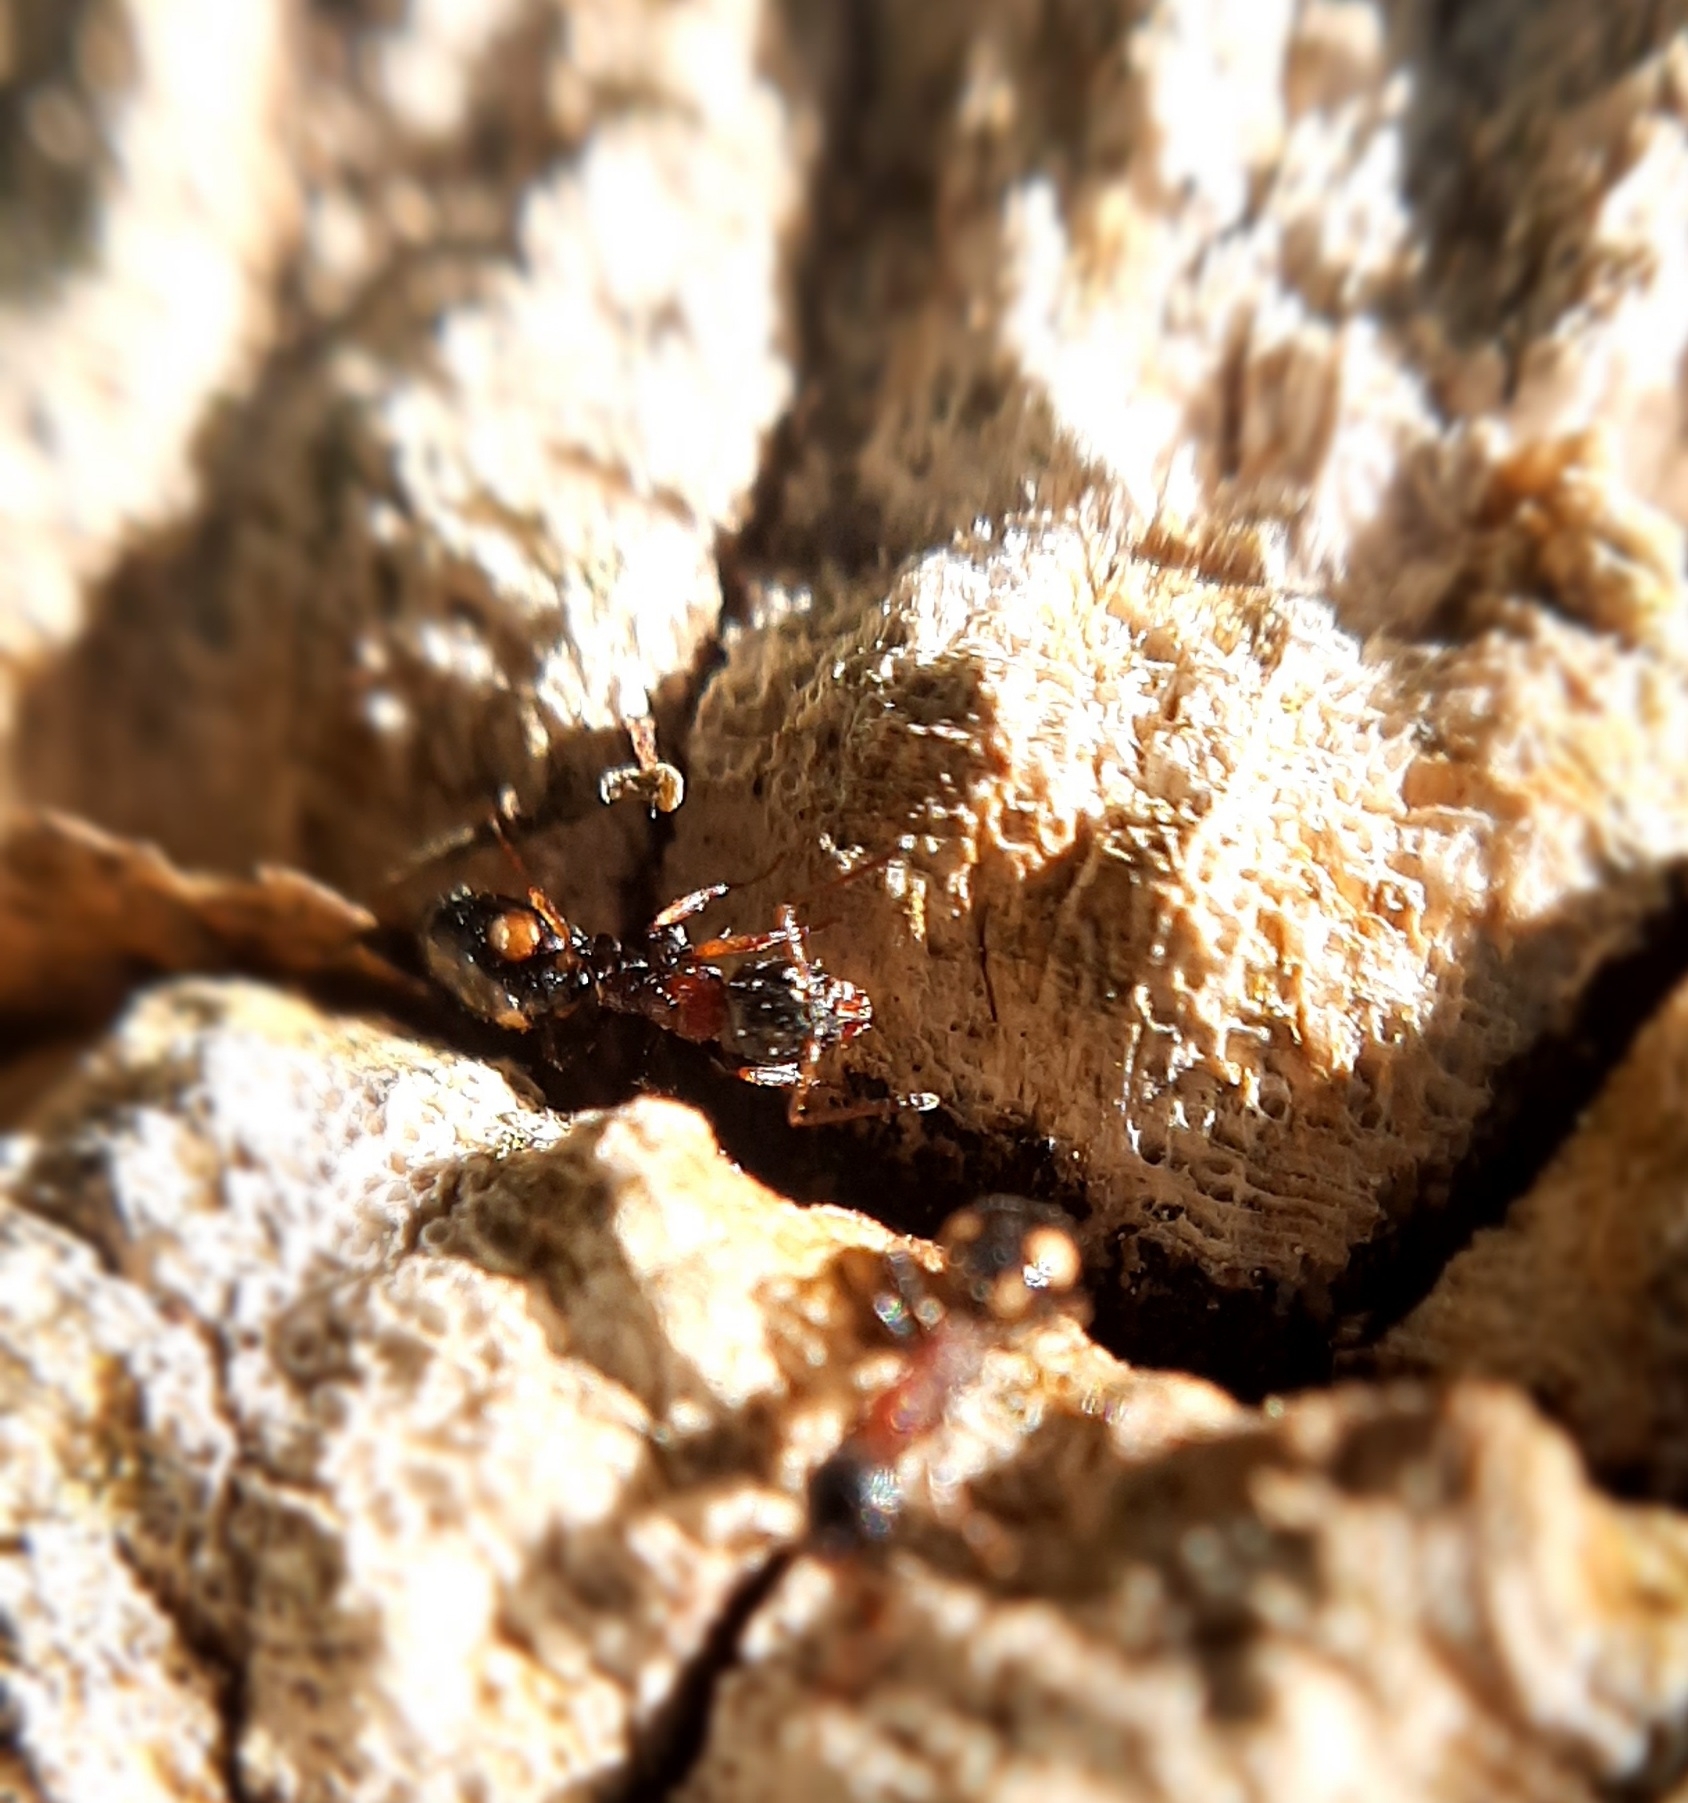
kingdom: Animalia
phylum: Arthropoda
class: Insecta
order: Hymenoptera
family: Formicidae
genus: Dolichoderus
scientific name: Dolichoderus quadripunctatus
